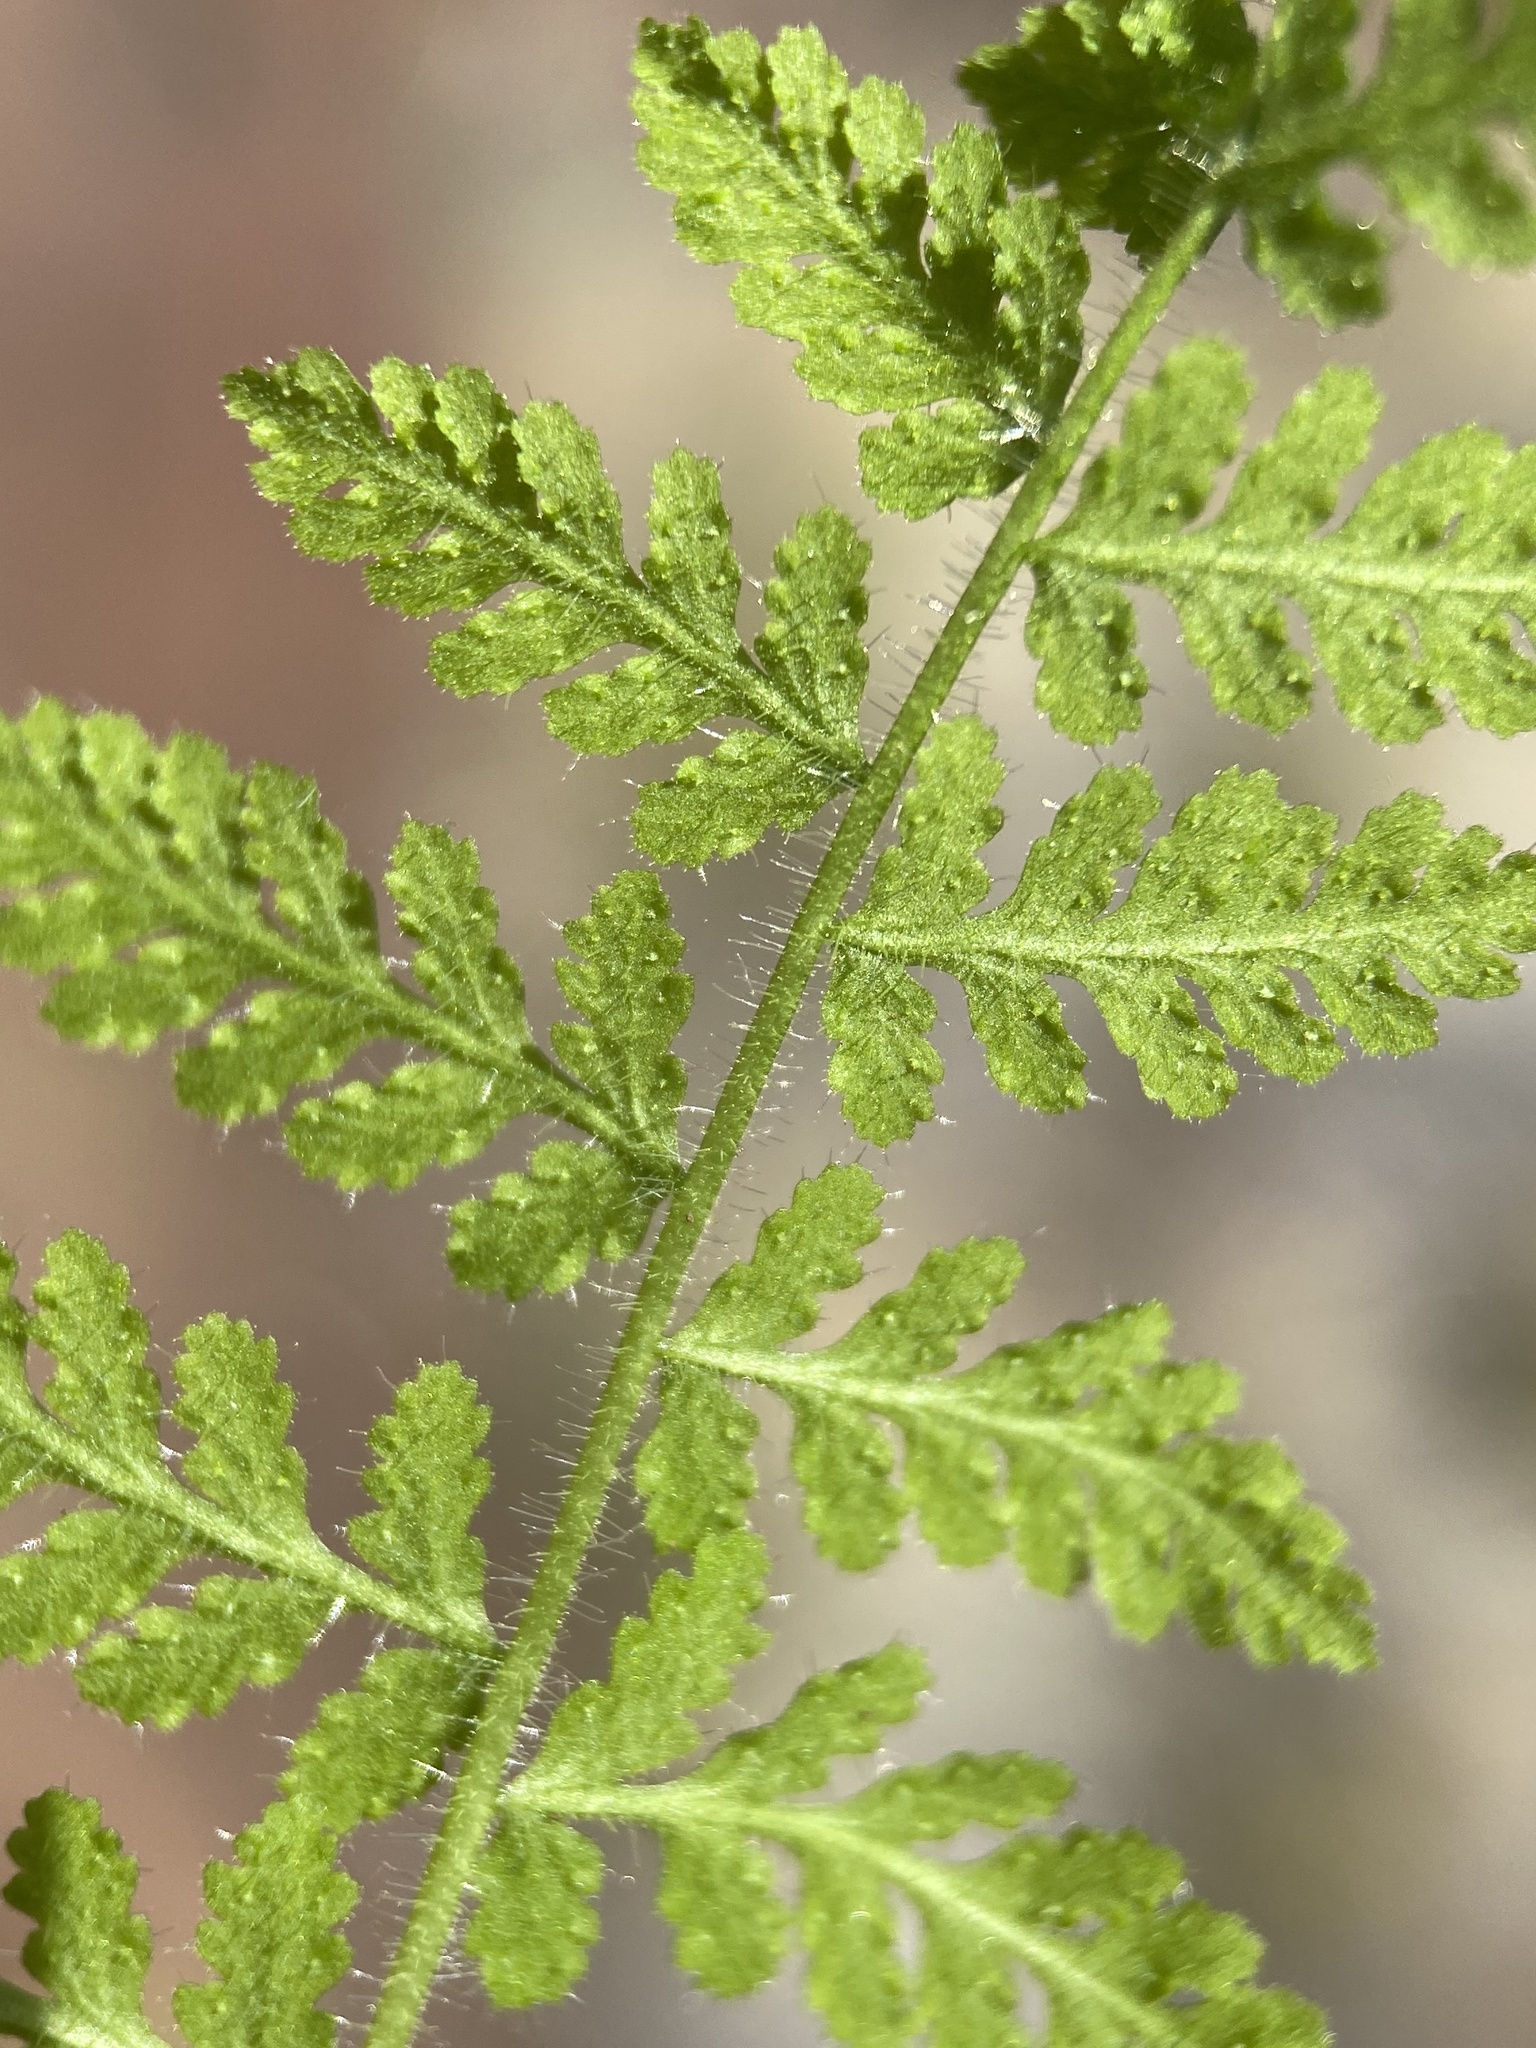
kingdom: Plantae
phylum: Tracheophyta
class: Polypodiopsida
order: Polypodiales
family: Woodsiaceae
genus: Physematium
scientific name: Physematium scopulinum
